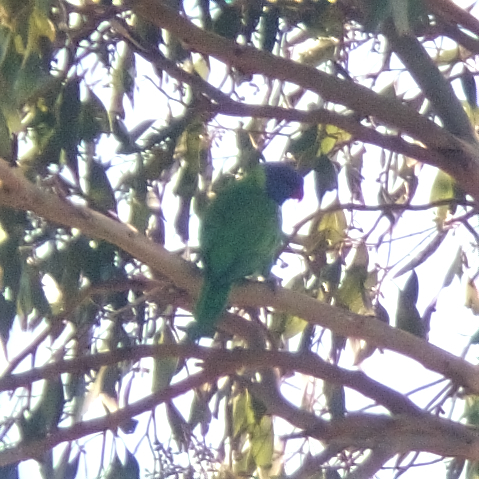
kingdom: Animalia
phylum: Chordata
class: Aves
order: Psittaciformes
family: Psittacidae
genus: Trichoglossus
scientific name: Trichoglossus haematodus
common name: Coconut lorikeet
